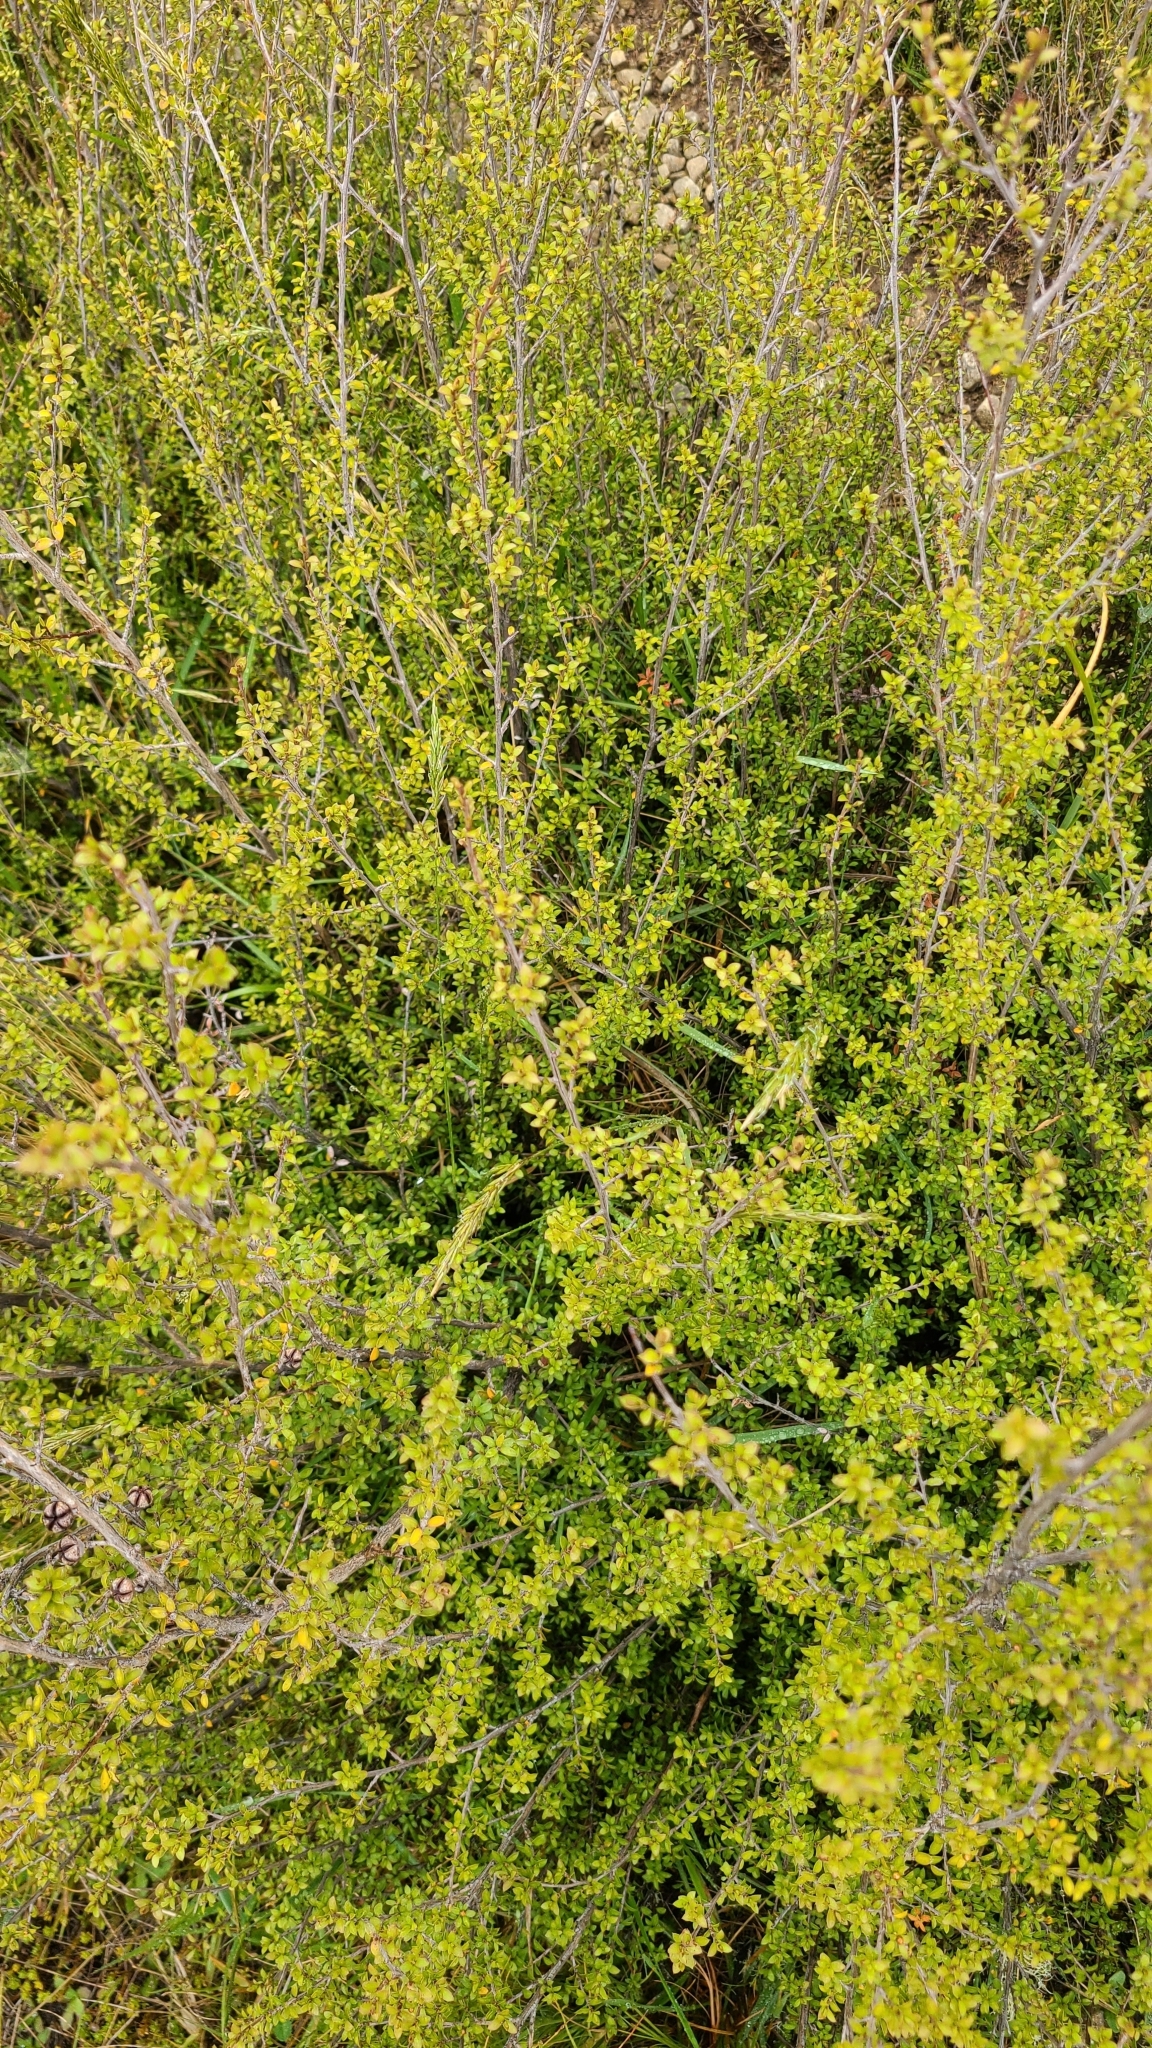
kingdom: Plantae
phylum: Tracheophyta
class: Magnoliopsida
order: Myrtales
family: Myrtaceae
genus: Leptospermum
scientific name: Leptospermum scoparium
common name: Broom tea-tree
